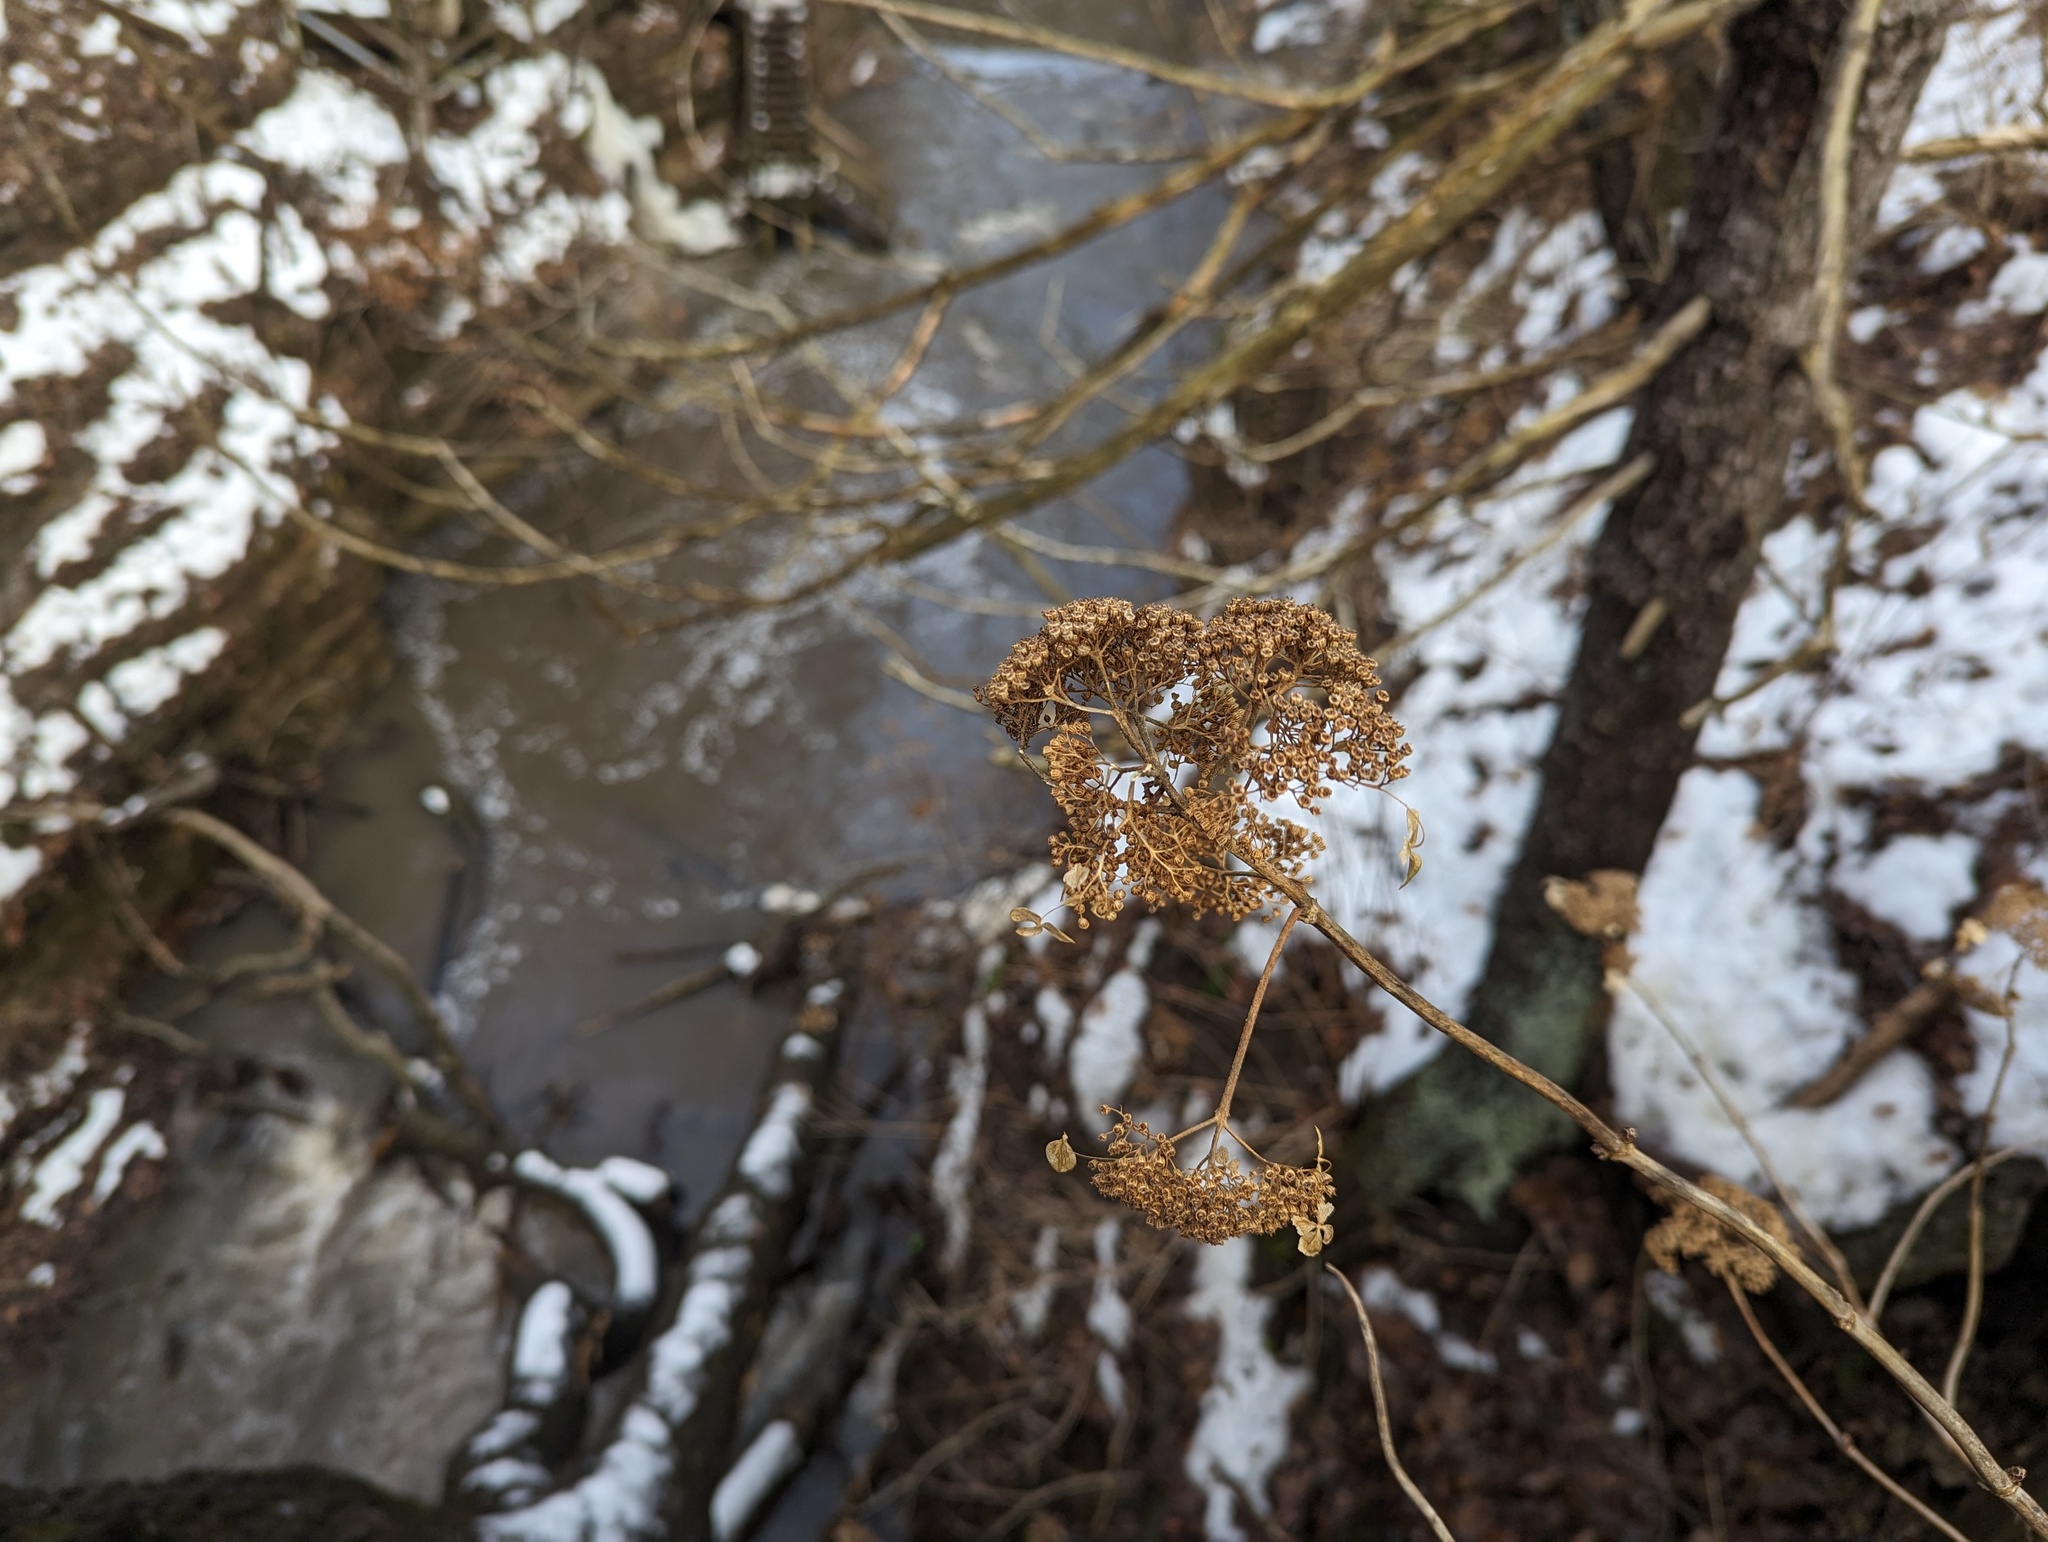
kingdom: Plantae
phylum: Tracheophyta
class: Magnoliopsida
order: Cornales
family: Hydrangeaceae
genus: Hydrangea
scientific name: Hydrangea arborescens
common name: Sevenbark
